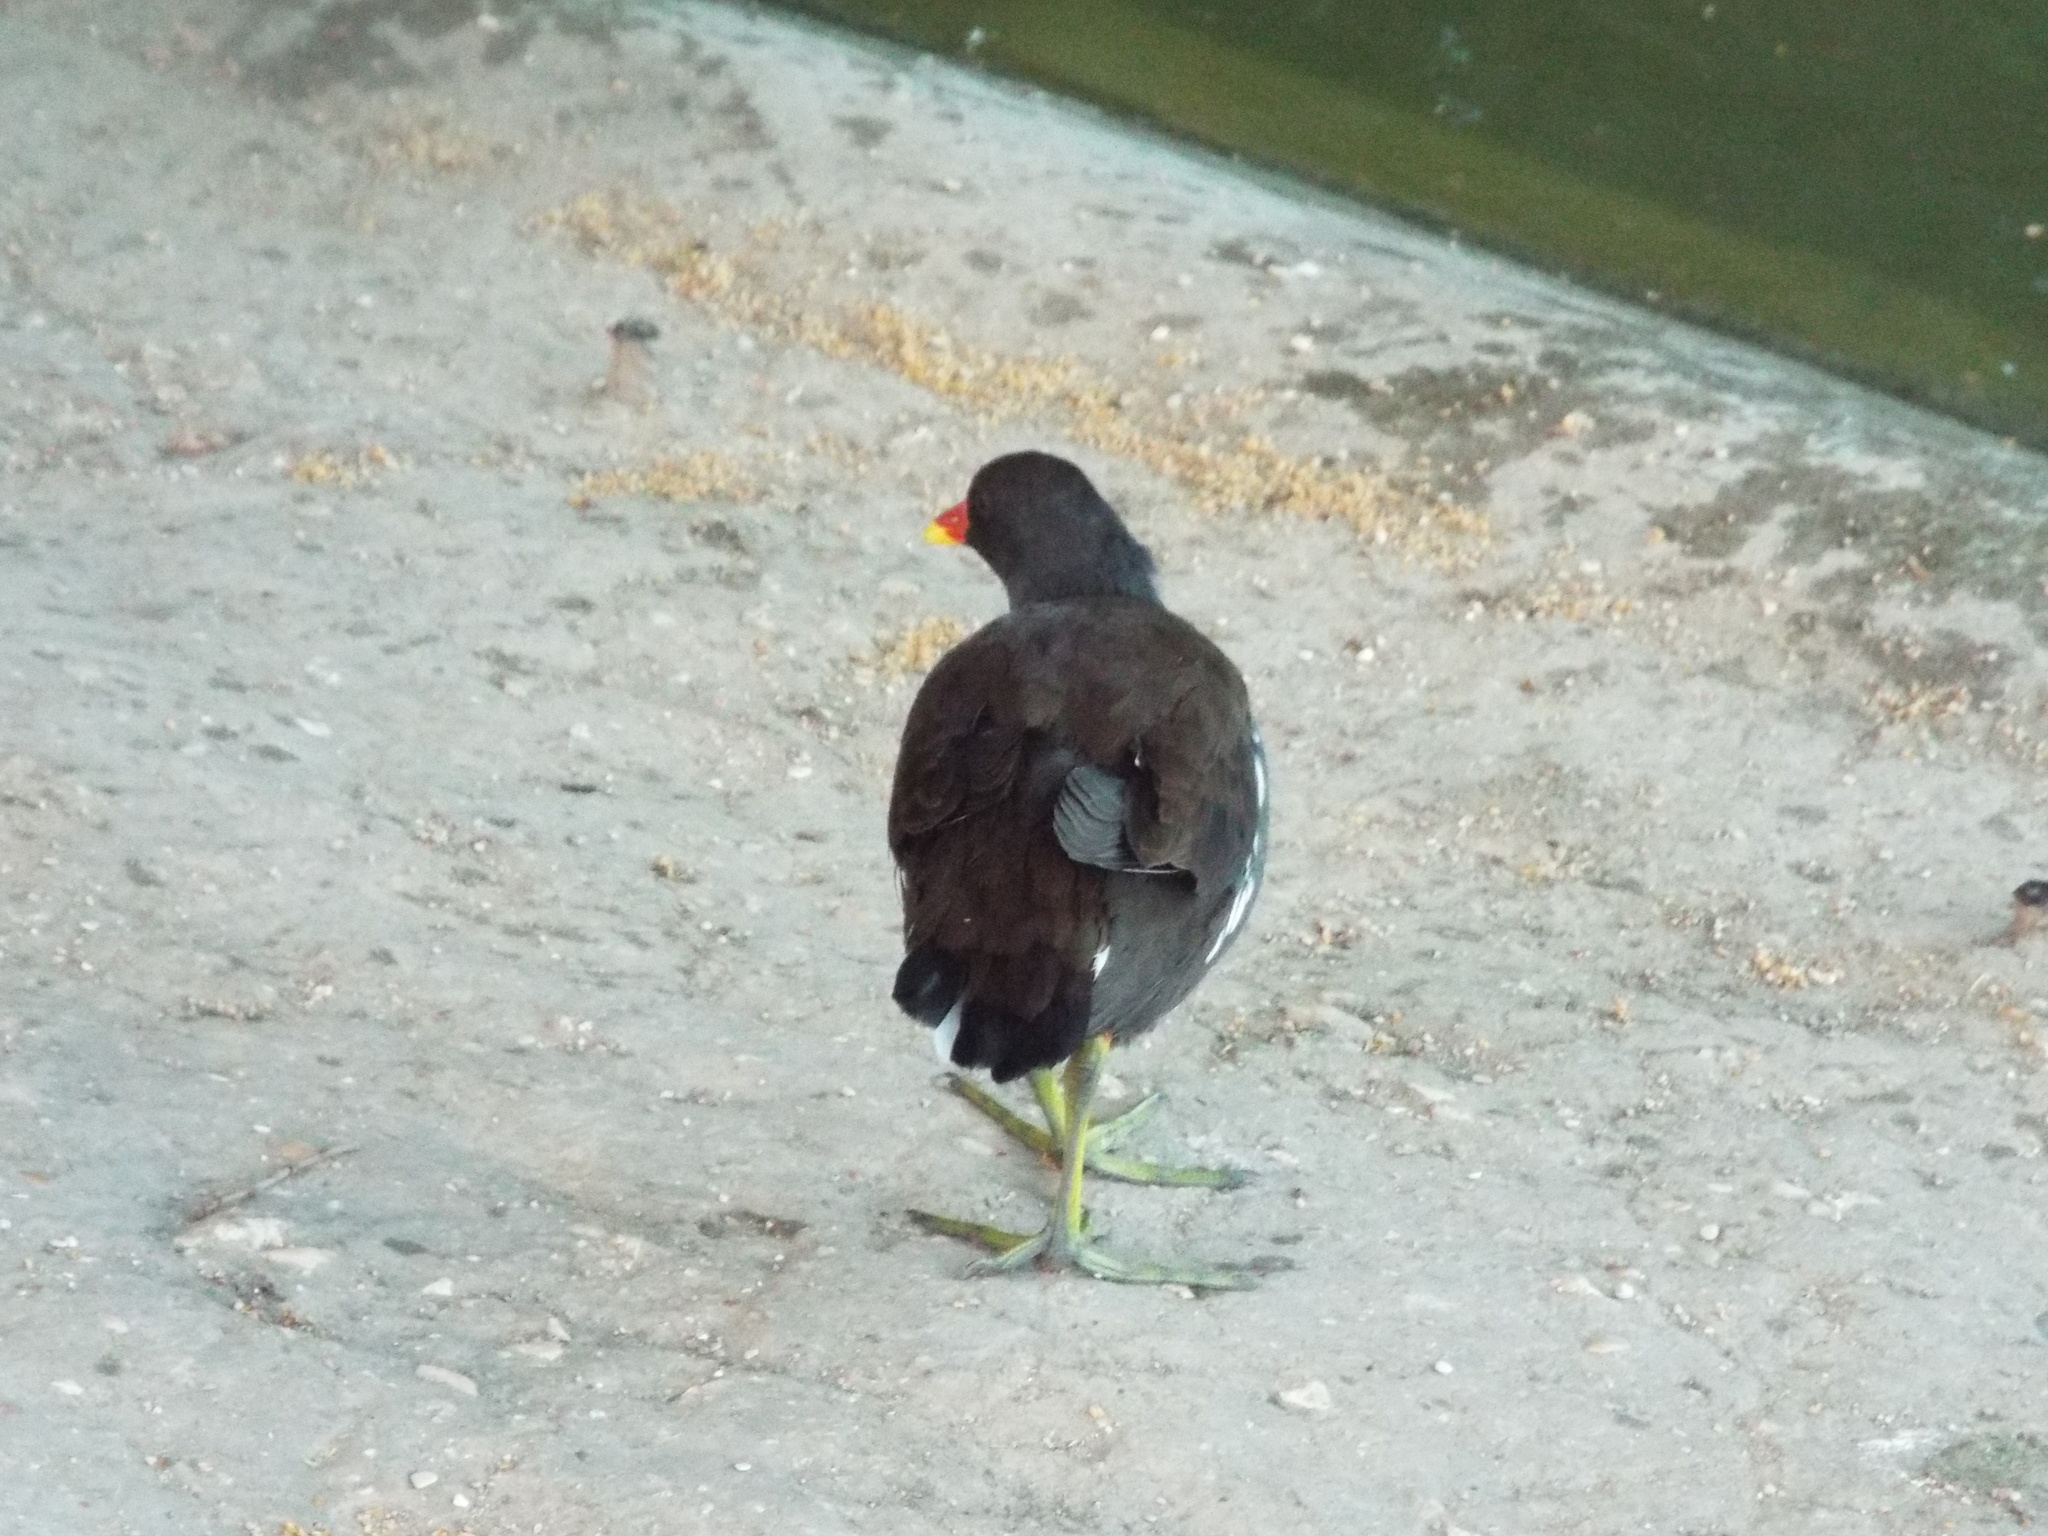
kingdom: Animalia
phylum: Chordata
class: Aves
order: Gruiformes
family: Rallidae
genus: Gallinula
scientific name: Gallinula chloropus
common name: Common moorhen
